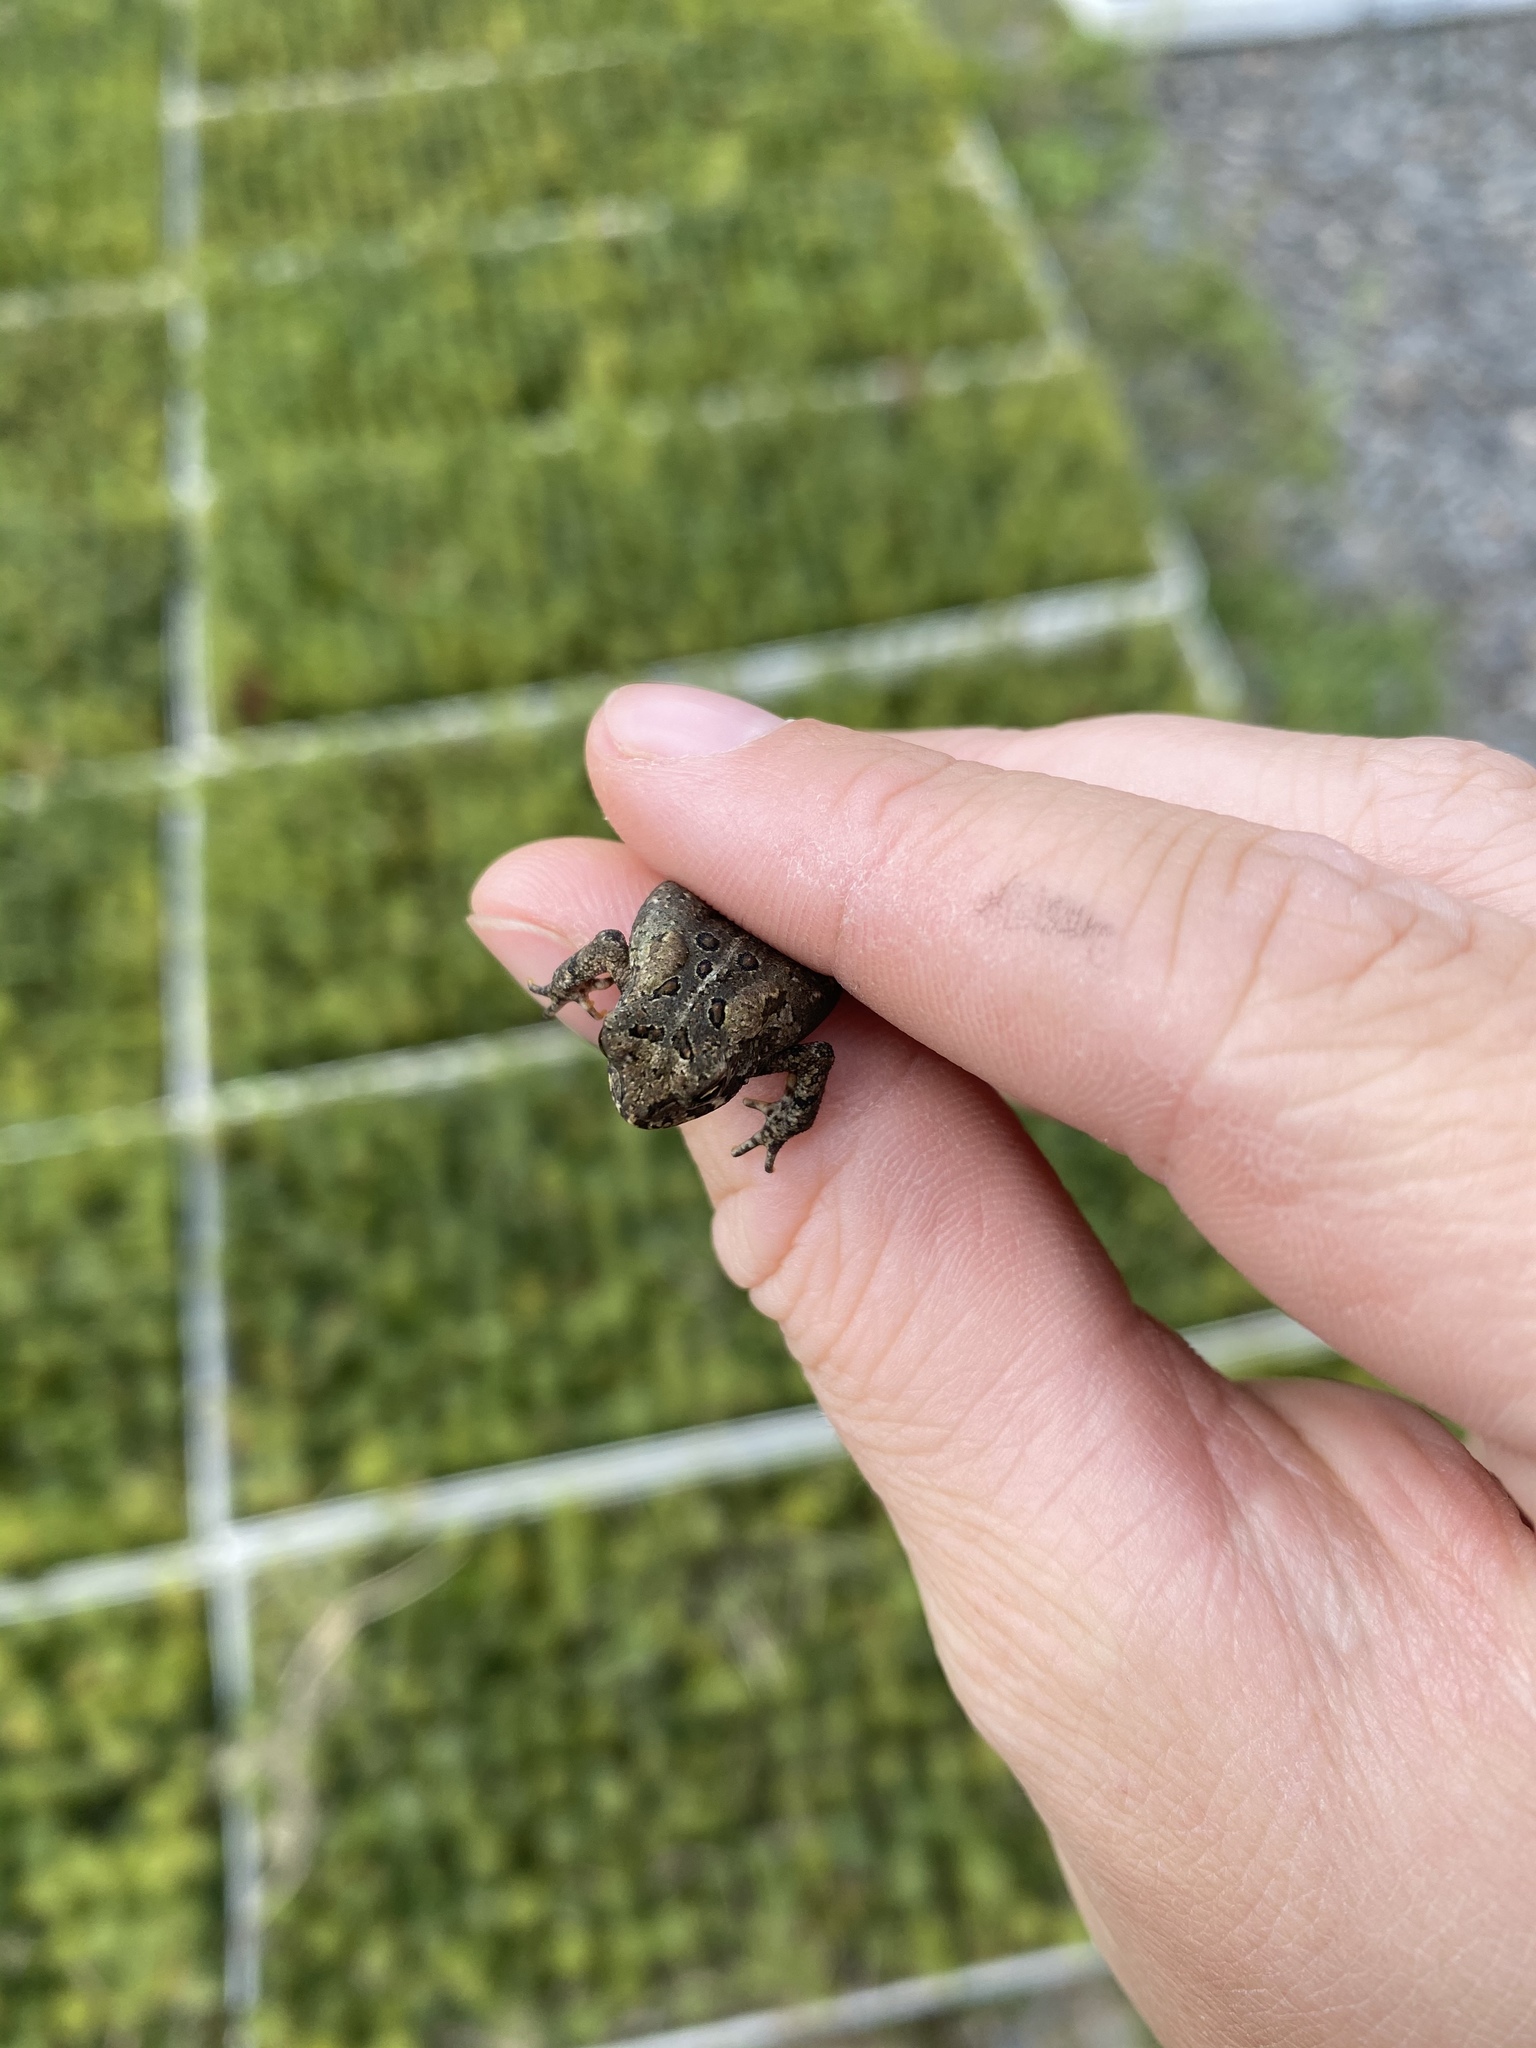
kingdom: Animalia
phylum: Chordata
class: Amphibia
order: Anura
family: Bufonidae
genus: Anaxyrus
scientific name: Anaxyrus americanus
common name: American toad
